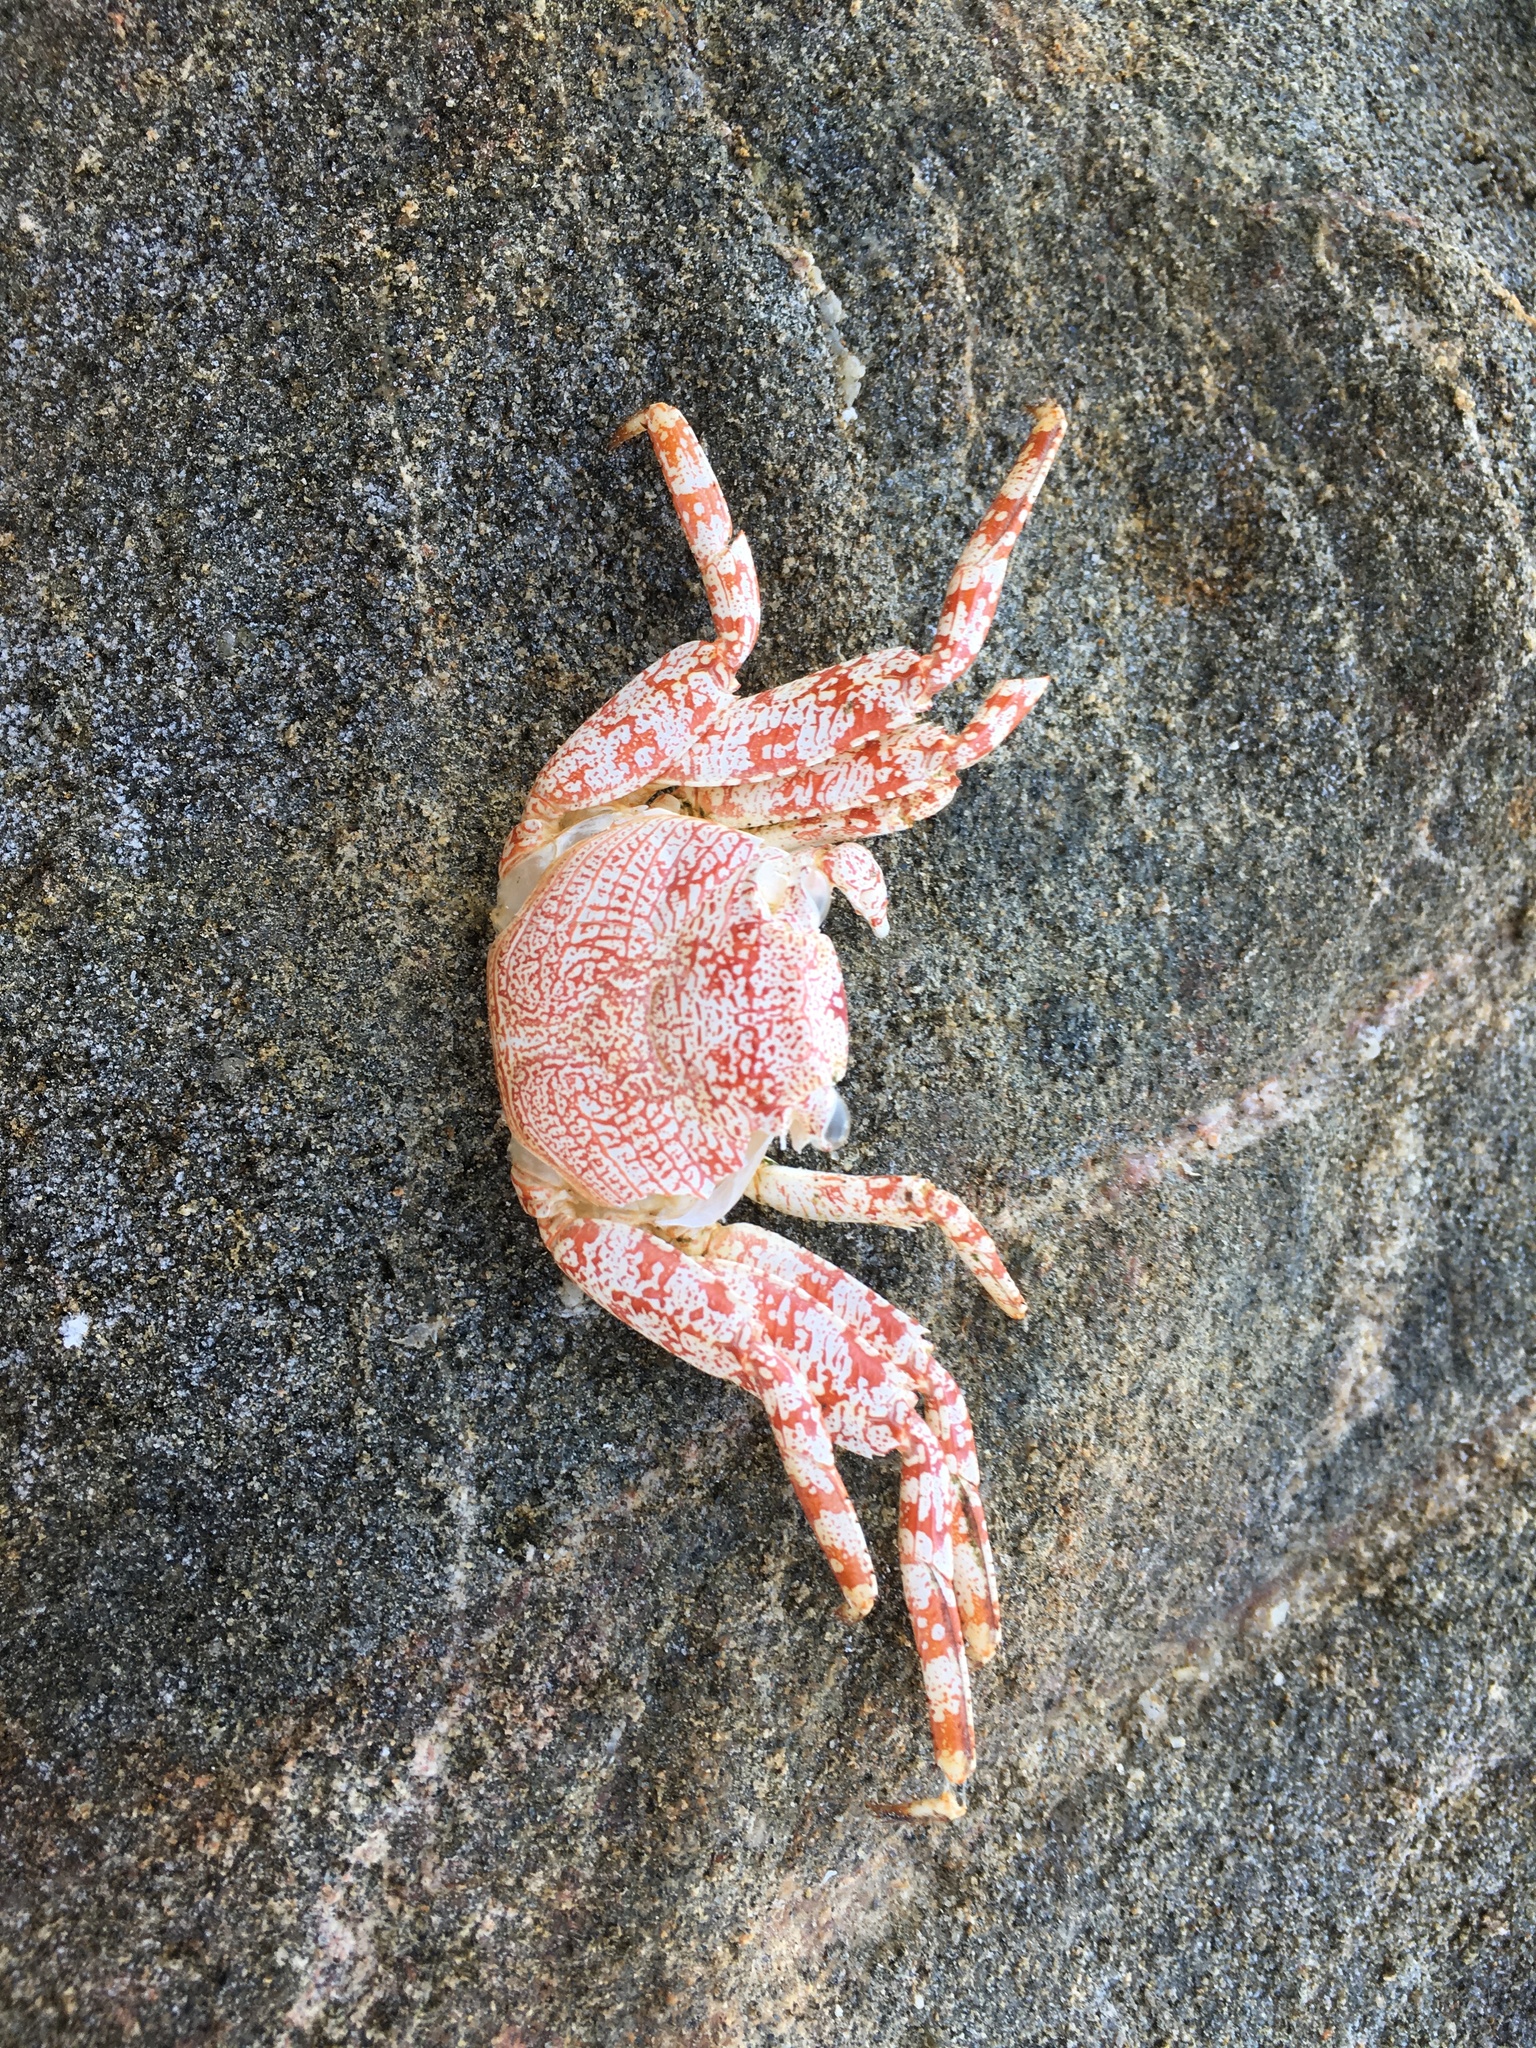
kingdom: Animalia
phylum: Arthropoda
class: Malacostraca
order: Decapoda
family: Grapsidae
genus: Grapsus
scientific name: Grapsus grapsus
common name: Sally lightfoot
